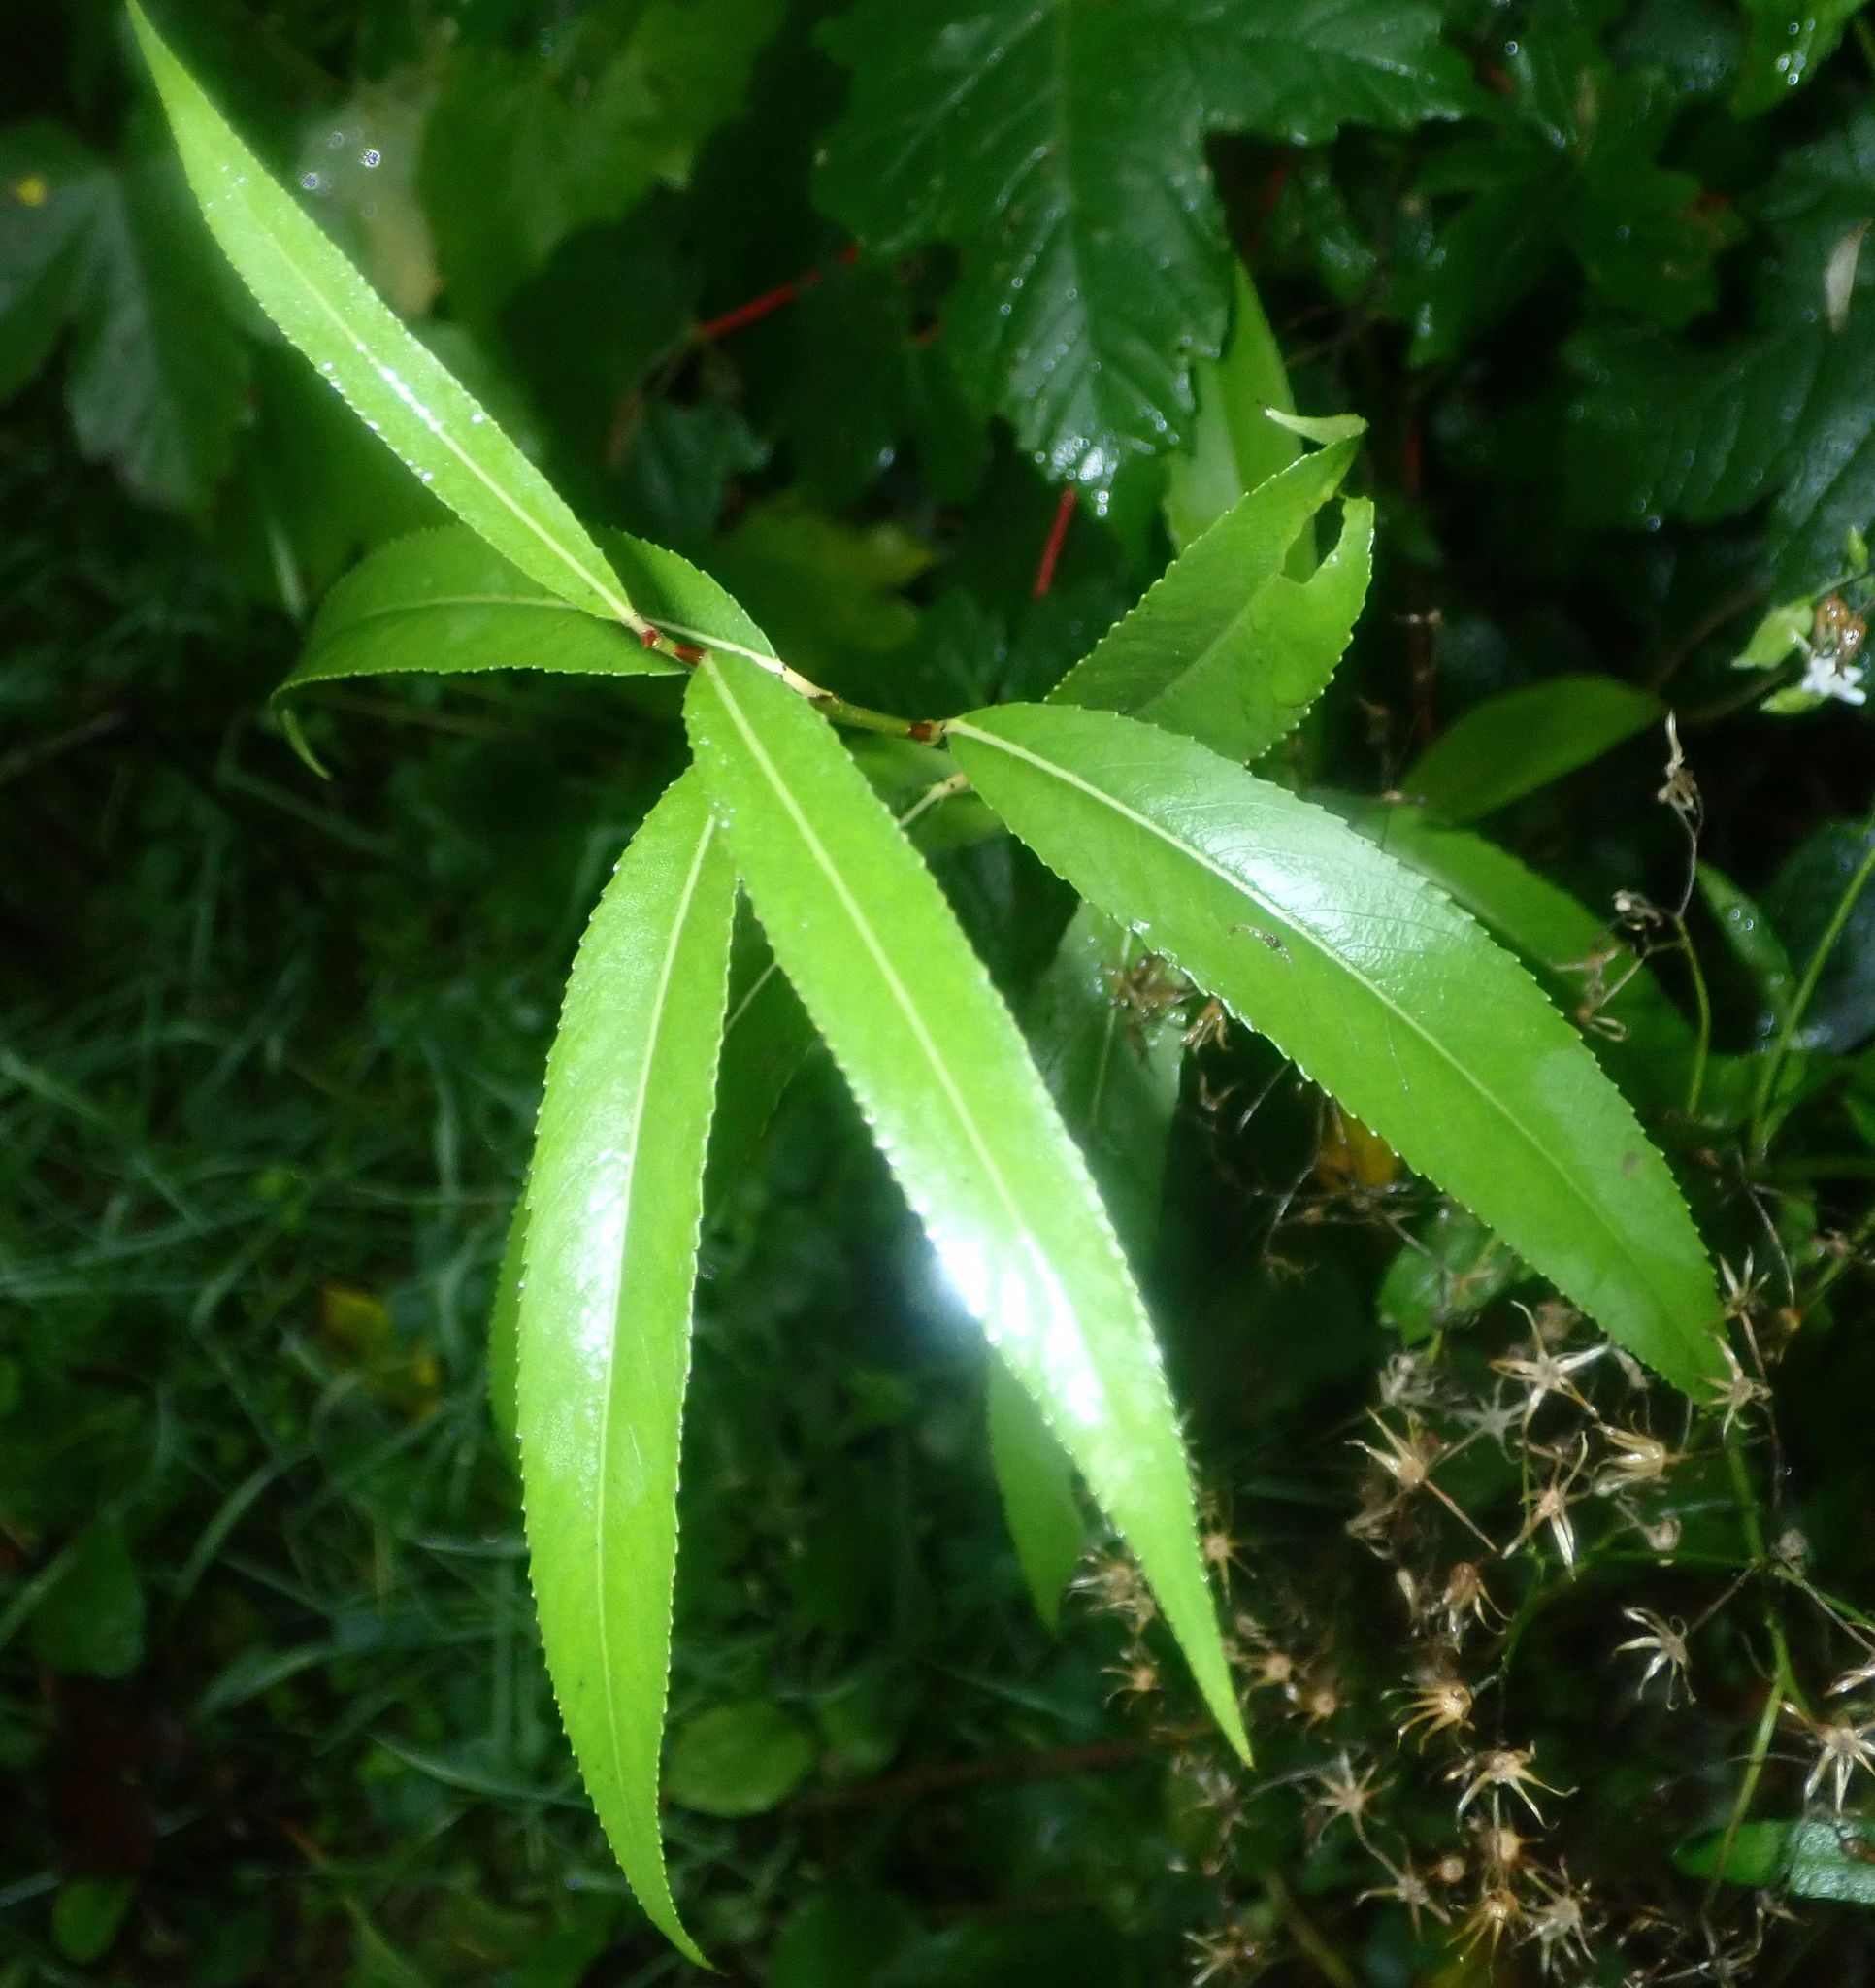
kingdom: Plantae
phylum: Tracheophyta
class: Magnoliopsida
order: Malpighiales
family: Violaceae
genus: Melicytus
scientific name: Melicytus lanceolatus
